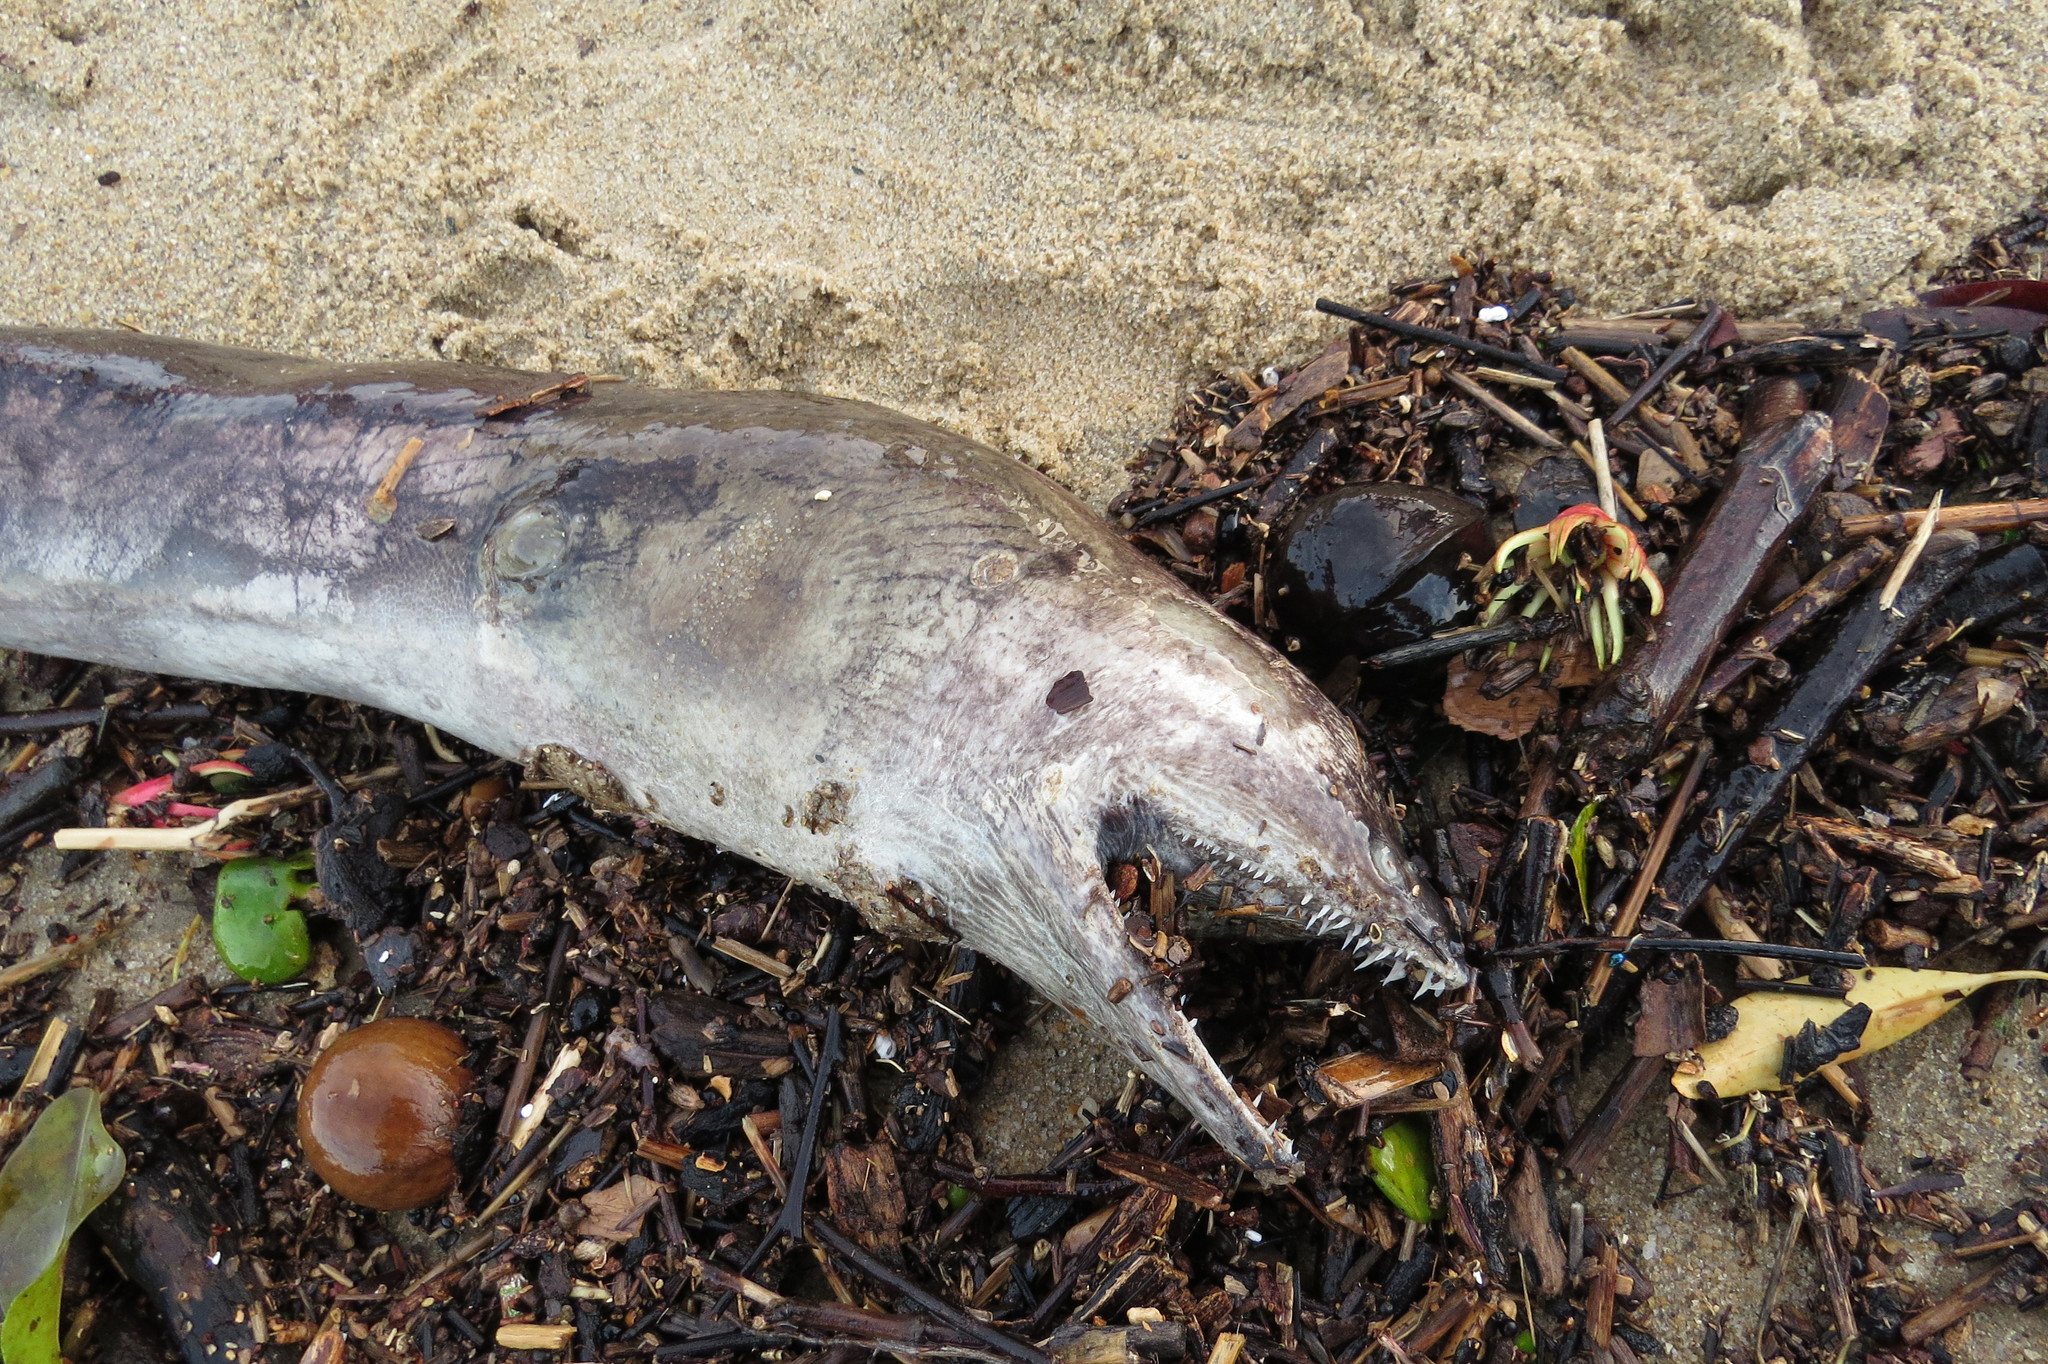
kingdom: Animalia
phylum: Chordata
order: Anguilliformes
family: Muraenidae
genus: Strophidon
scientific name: Strophidon sathete
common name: Giant slender moray
